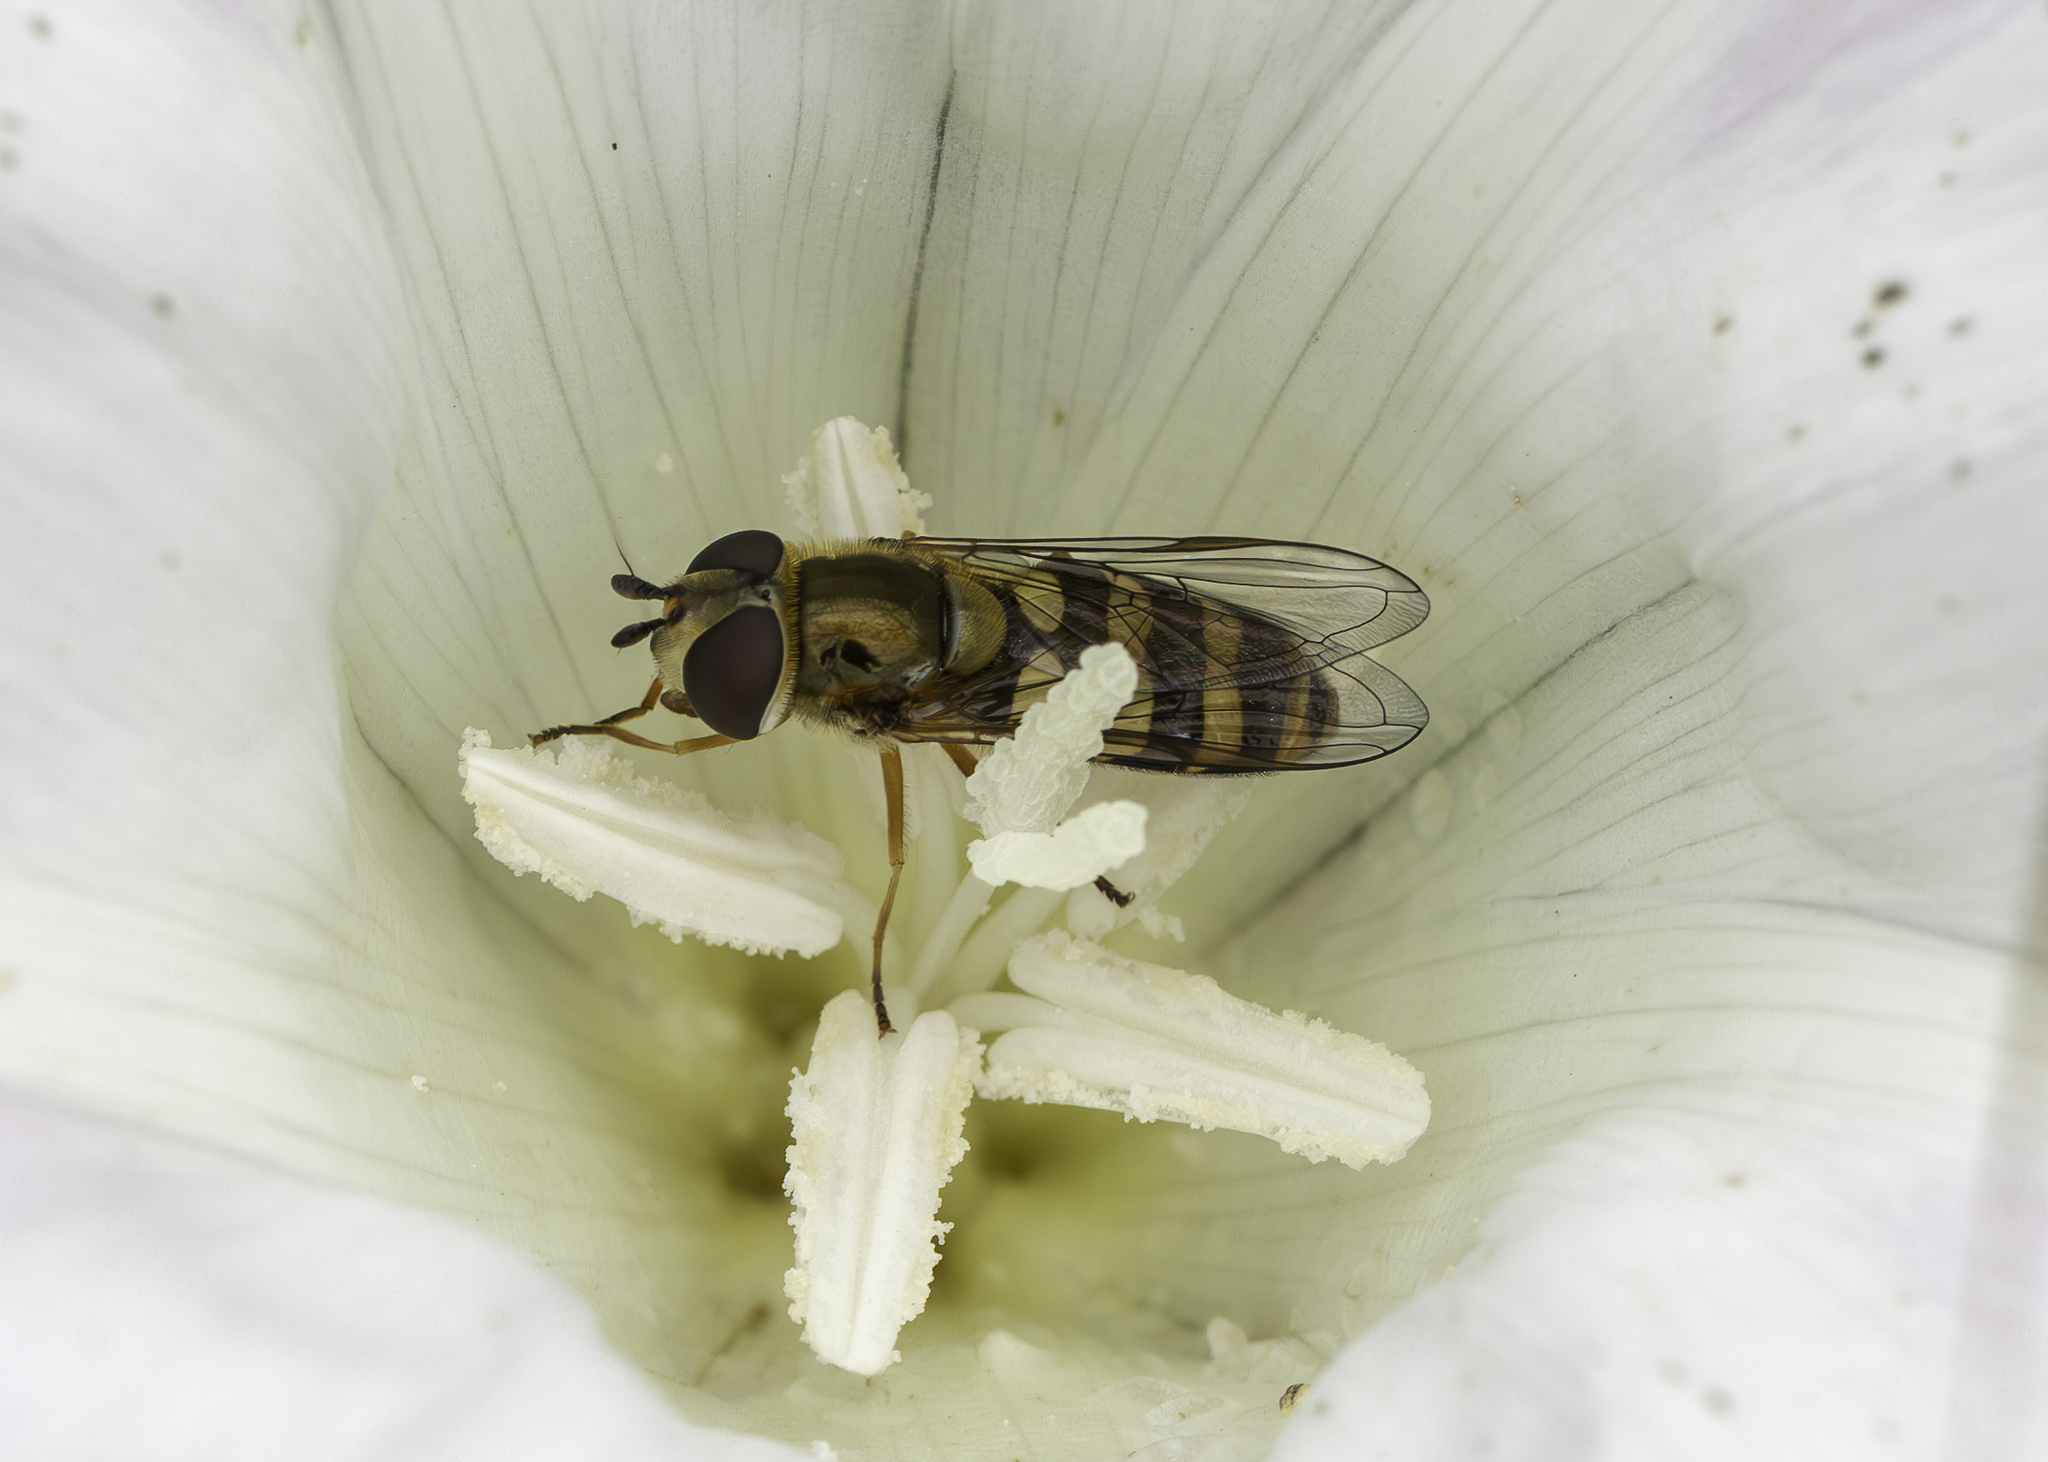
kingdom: Animalia
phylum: Arthropoda
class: Insecta
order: Diptera
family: Syrphidae
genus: Eupeodes
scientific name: Eupeodes fumipennis
